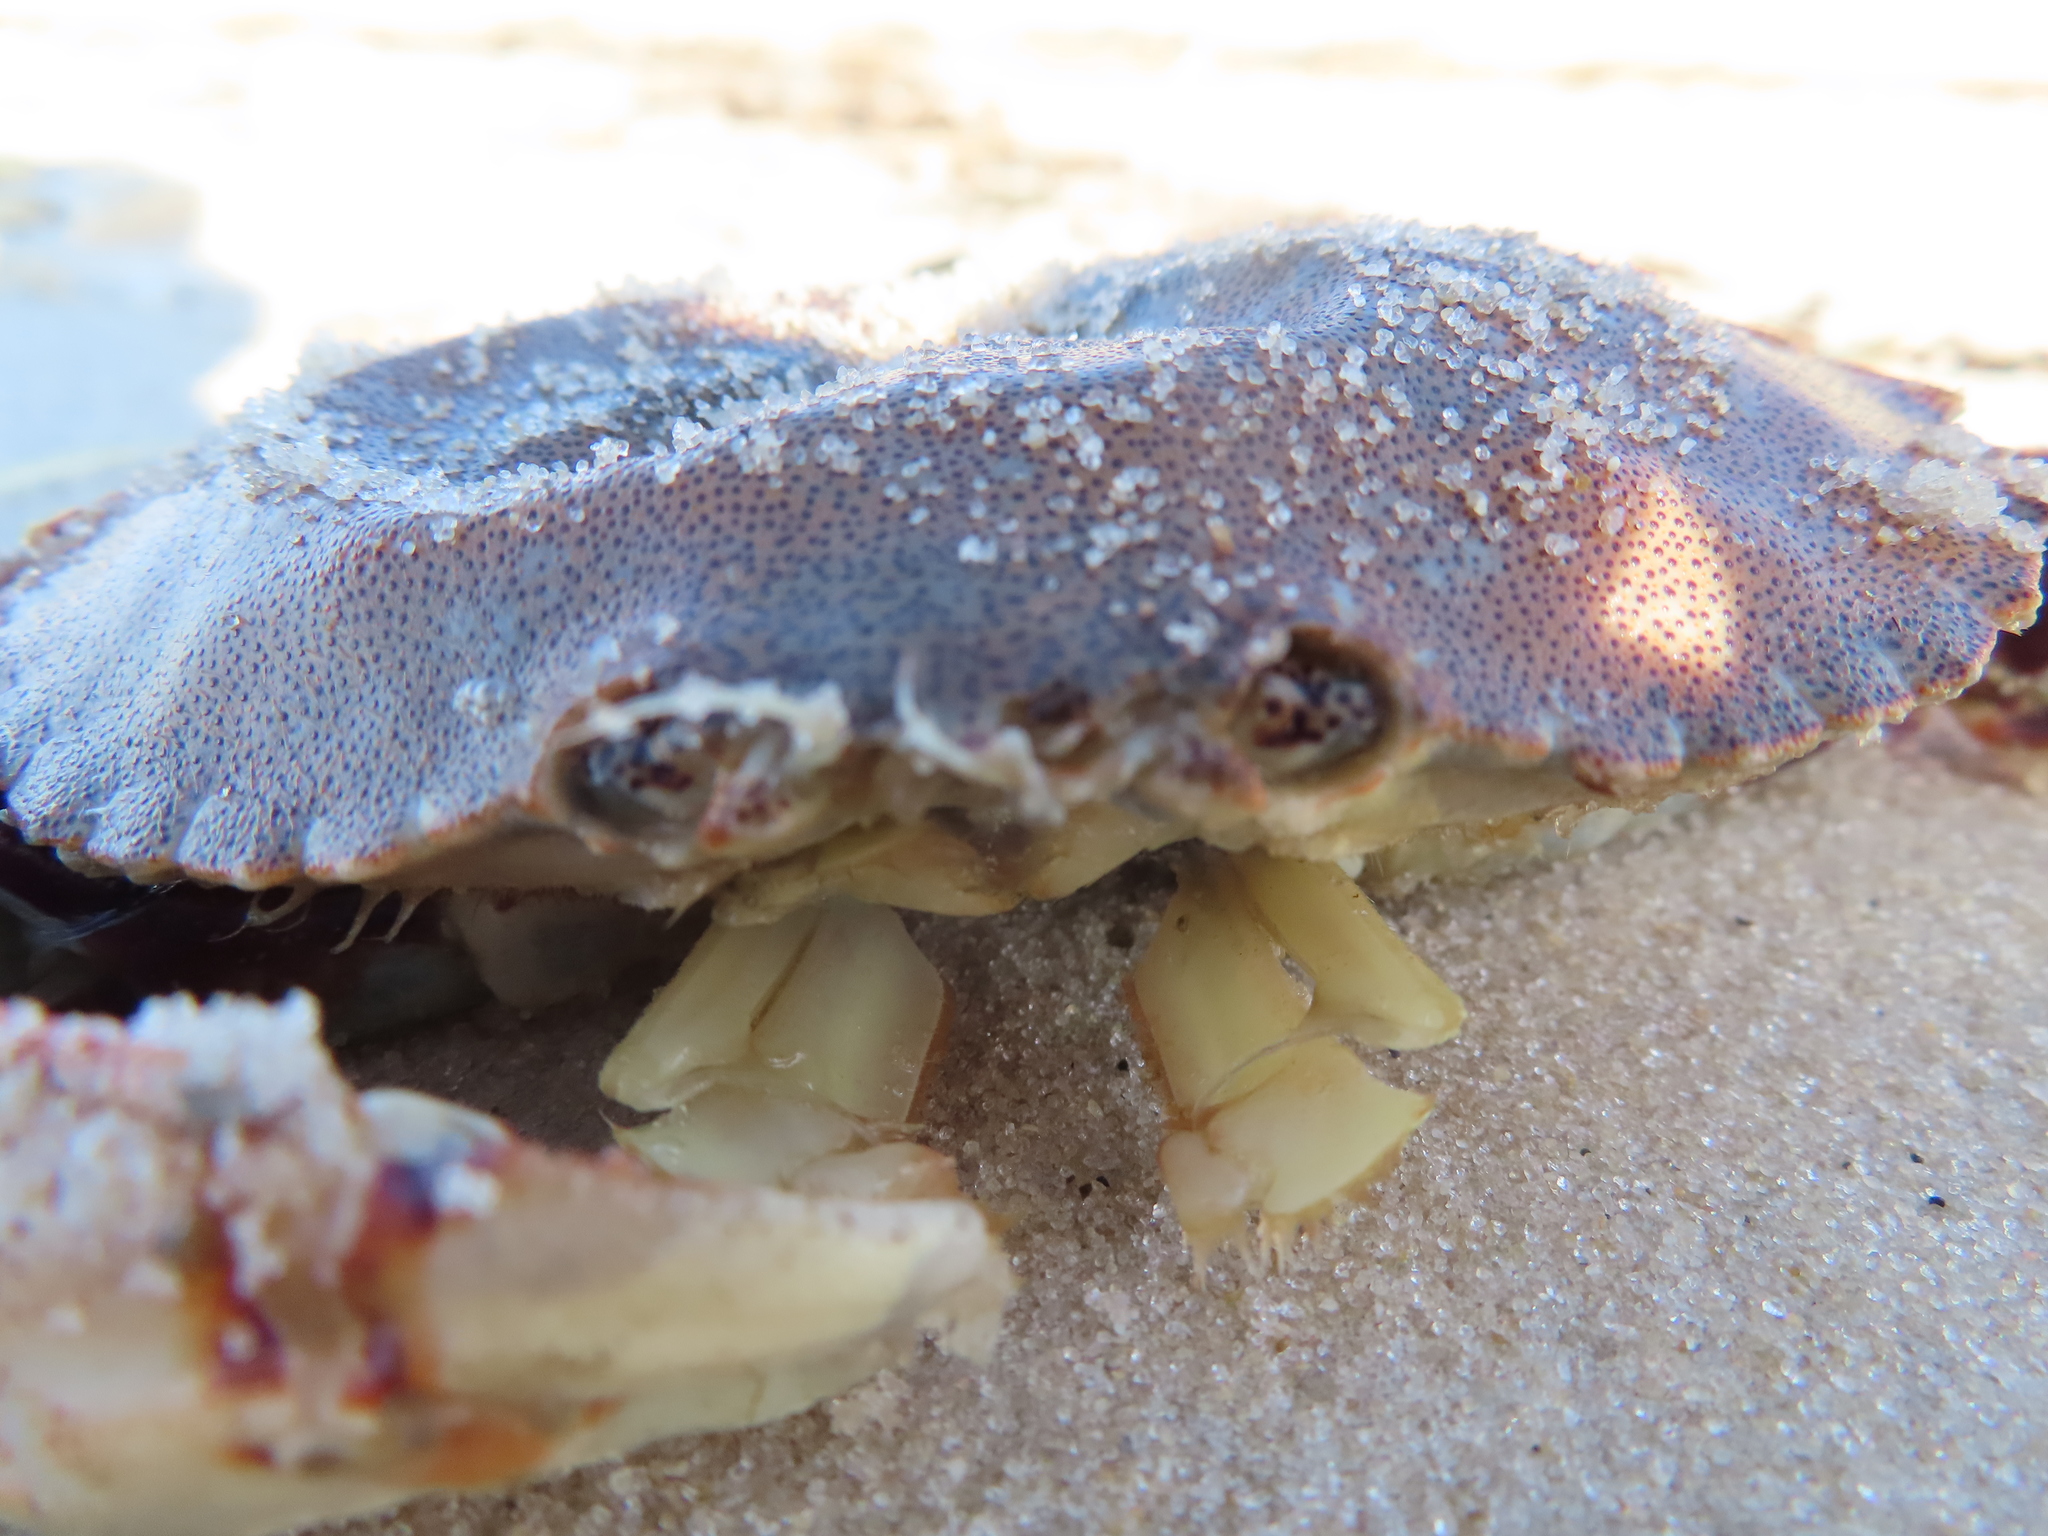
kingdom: Animalia
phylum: Arthropoda
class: Malacostraca
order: Decapoda
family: Cancridae
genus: Cancer
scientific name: Cancer irroratus
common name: Atlantic rock crab
